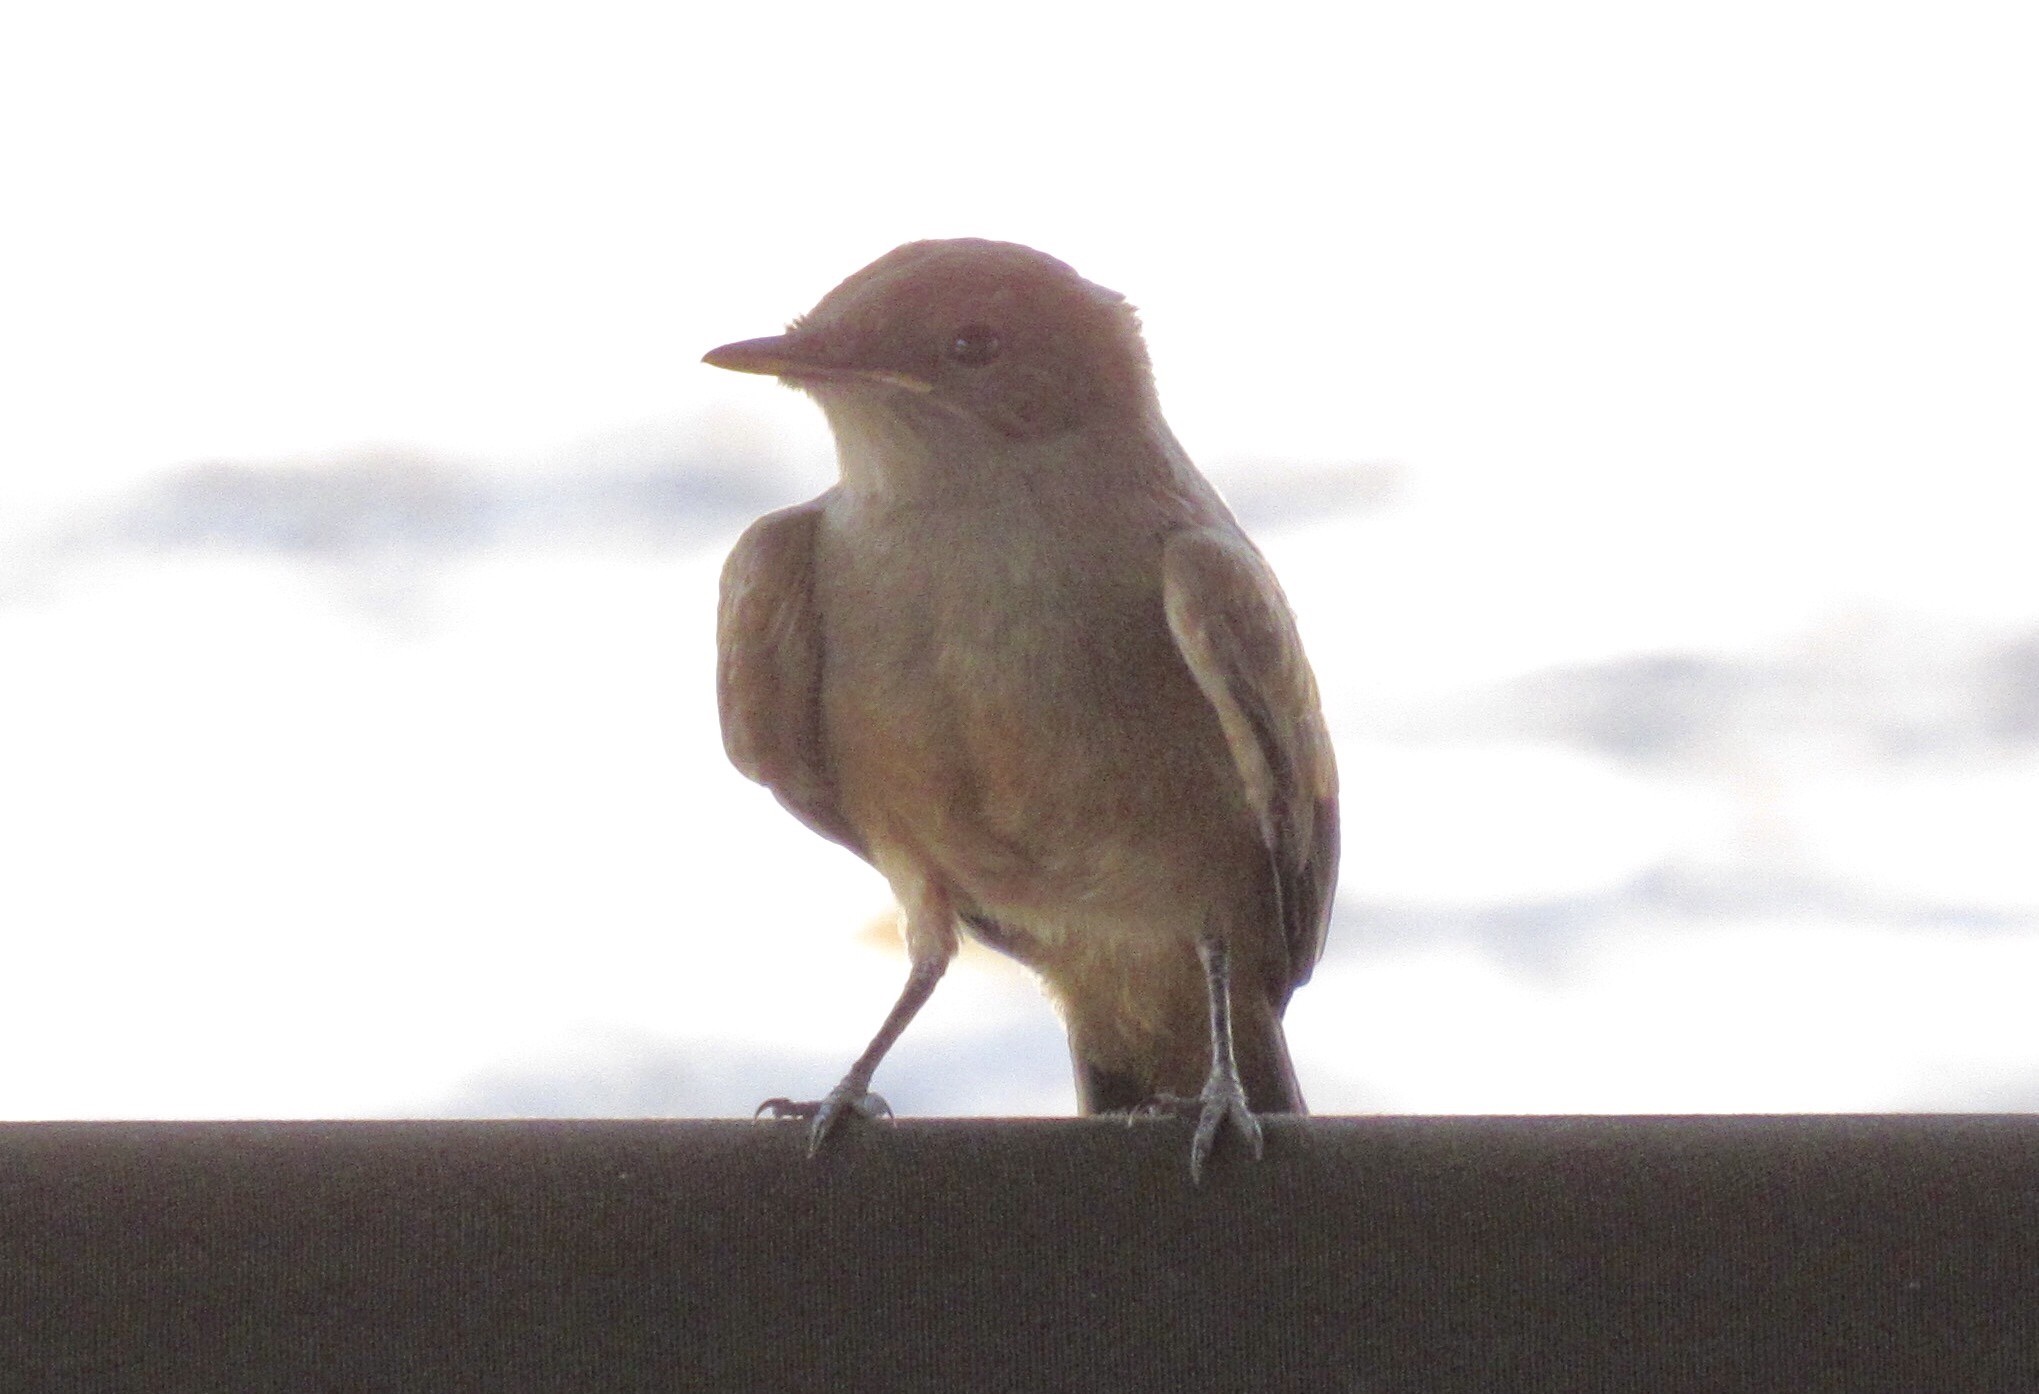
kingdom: Animalia
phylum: Chordata
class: Aves
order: Passeriformes
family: Tyrannidae
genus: Sayornis
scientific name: Sayornis saya
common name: Say's phoebe
